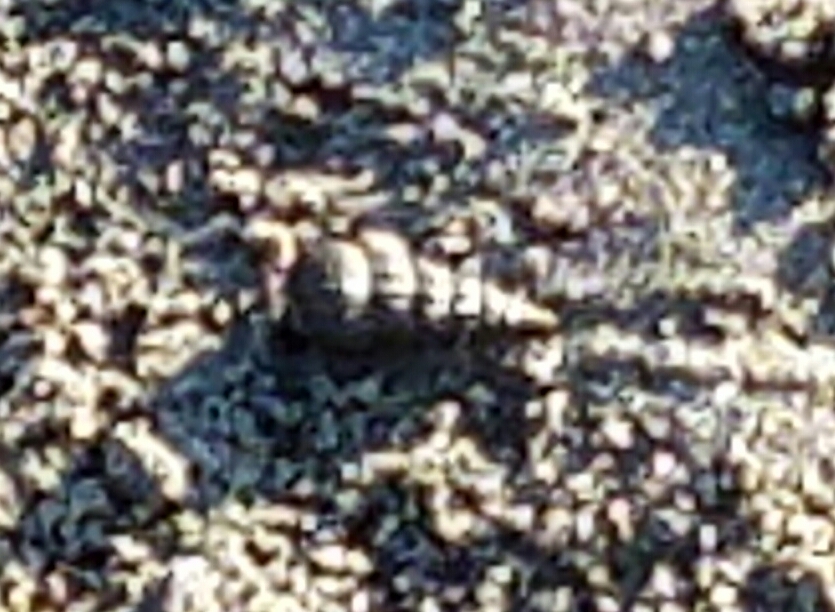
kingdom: Animalia
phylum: Mollusca
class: Gastropoda
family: Potamididae
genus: Cerithideopsis
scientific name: Cerithideopsis californica
